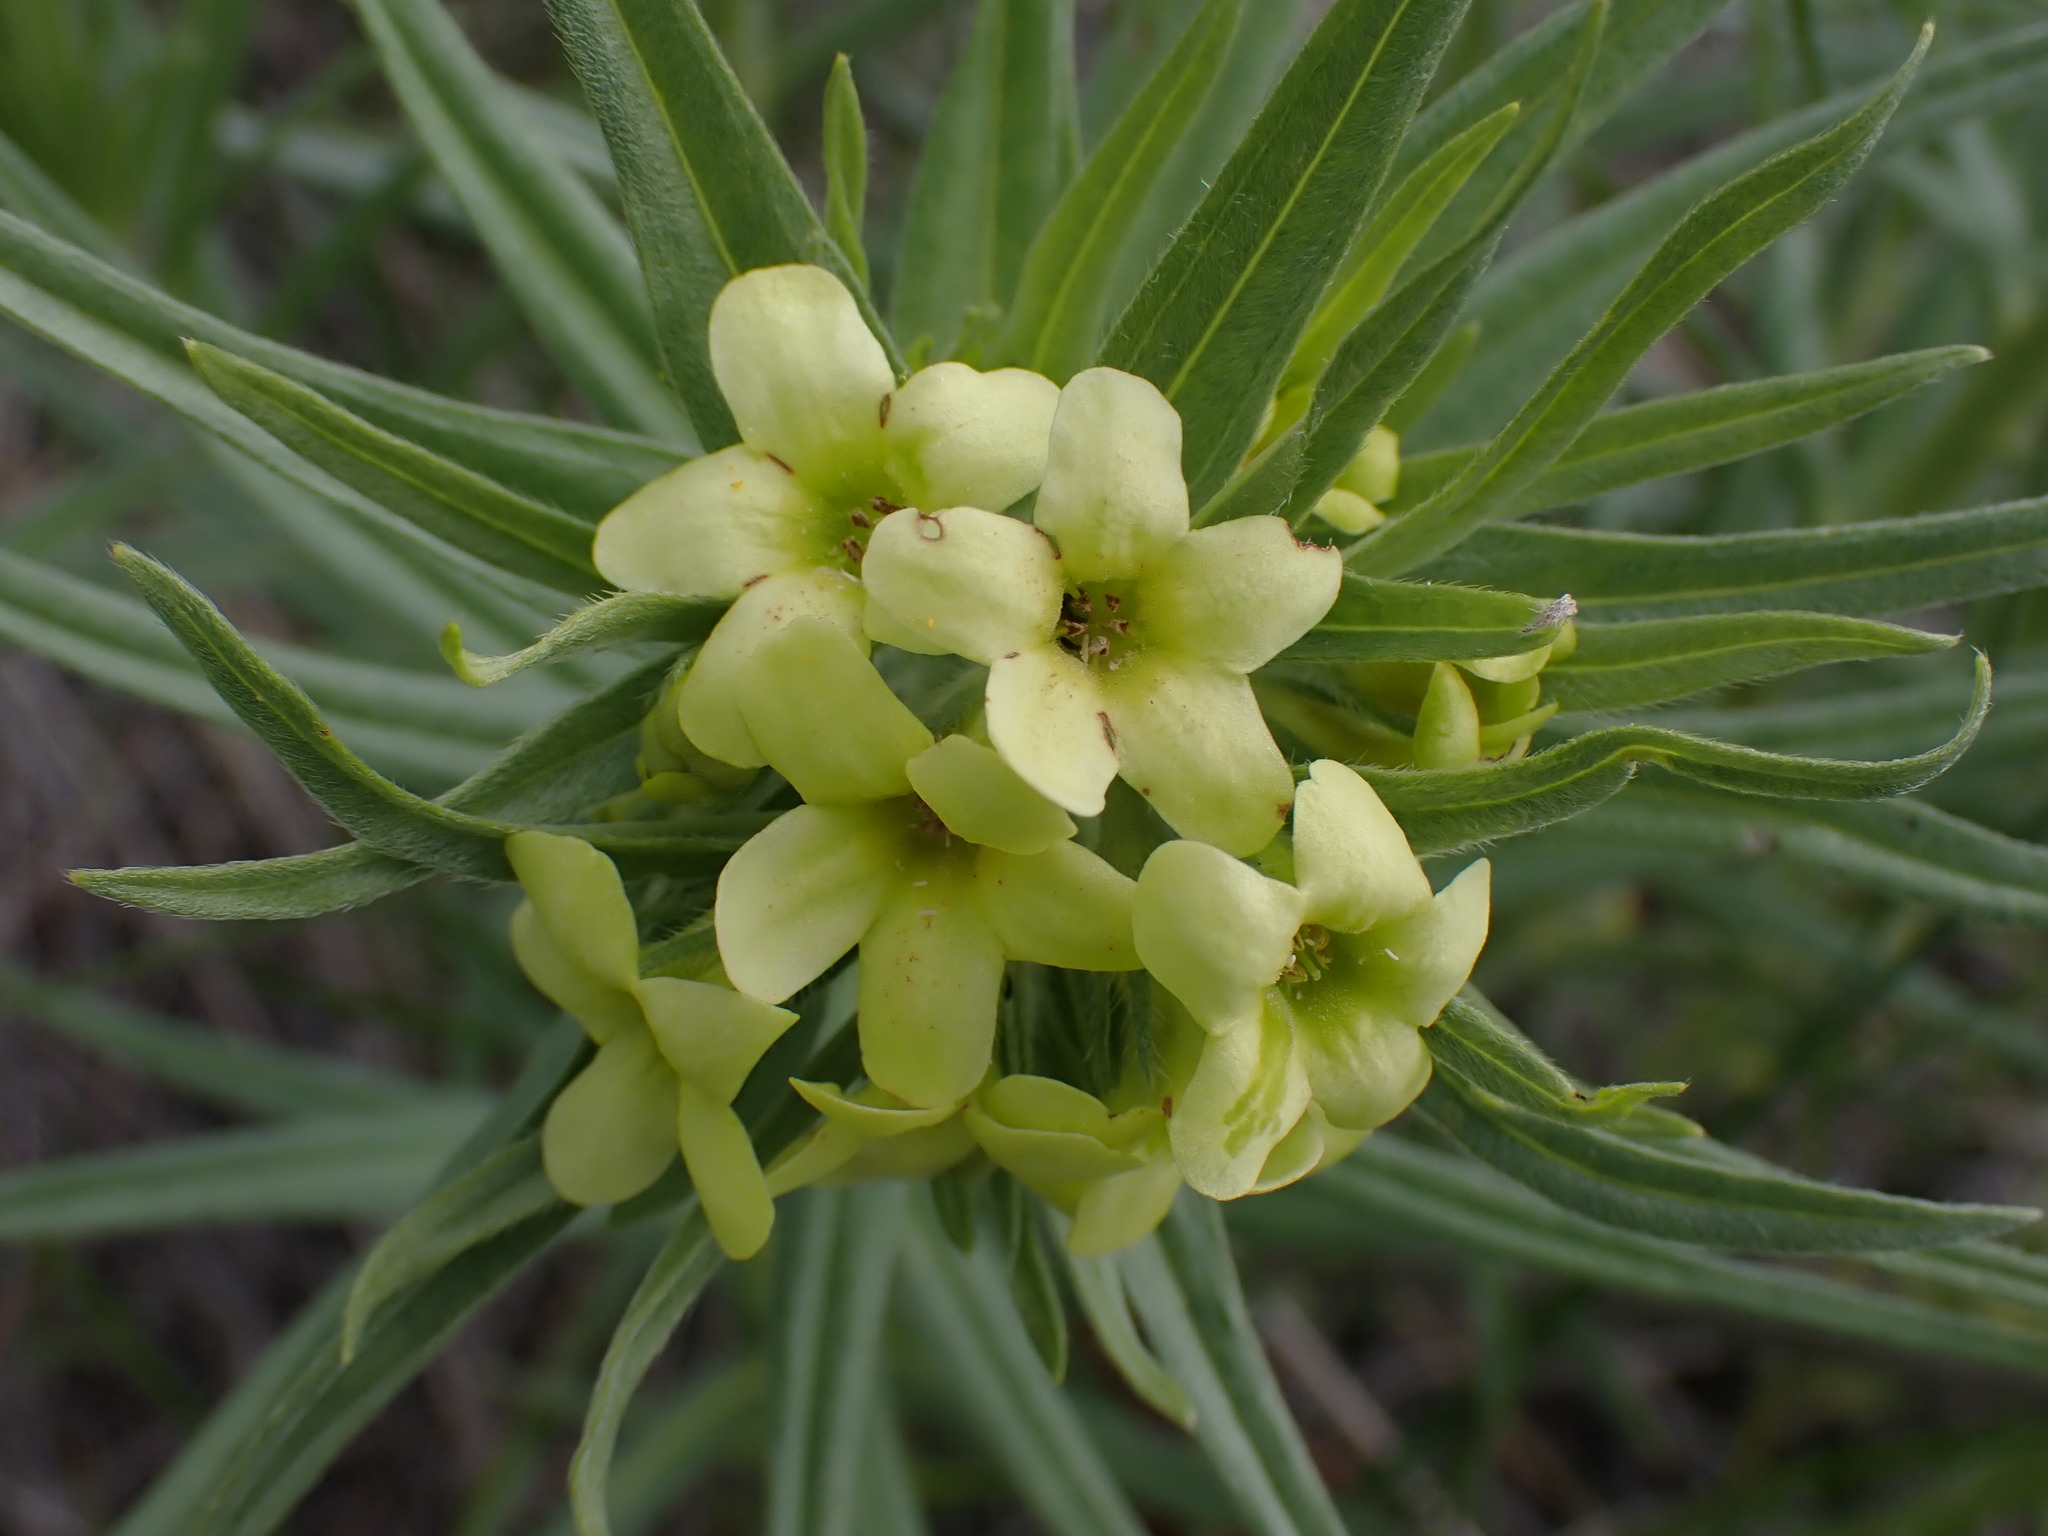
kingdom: Plantae
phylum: Tracheophyta
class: Magnoliopsida
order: Boraginales
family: Boraginaceae
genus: Lithospermum
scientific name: Lithospermum ruderale
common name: Western gromwell
